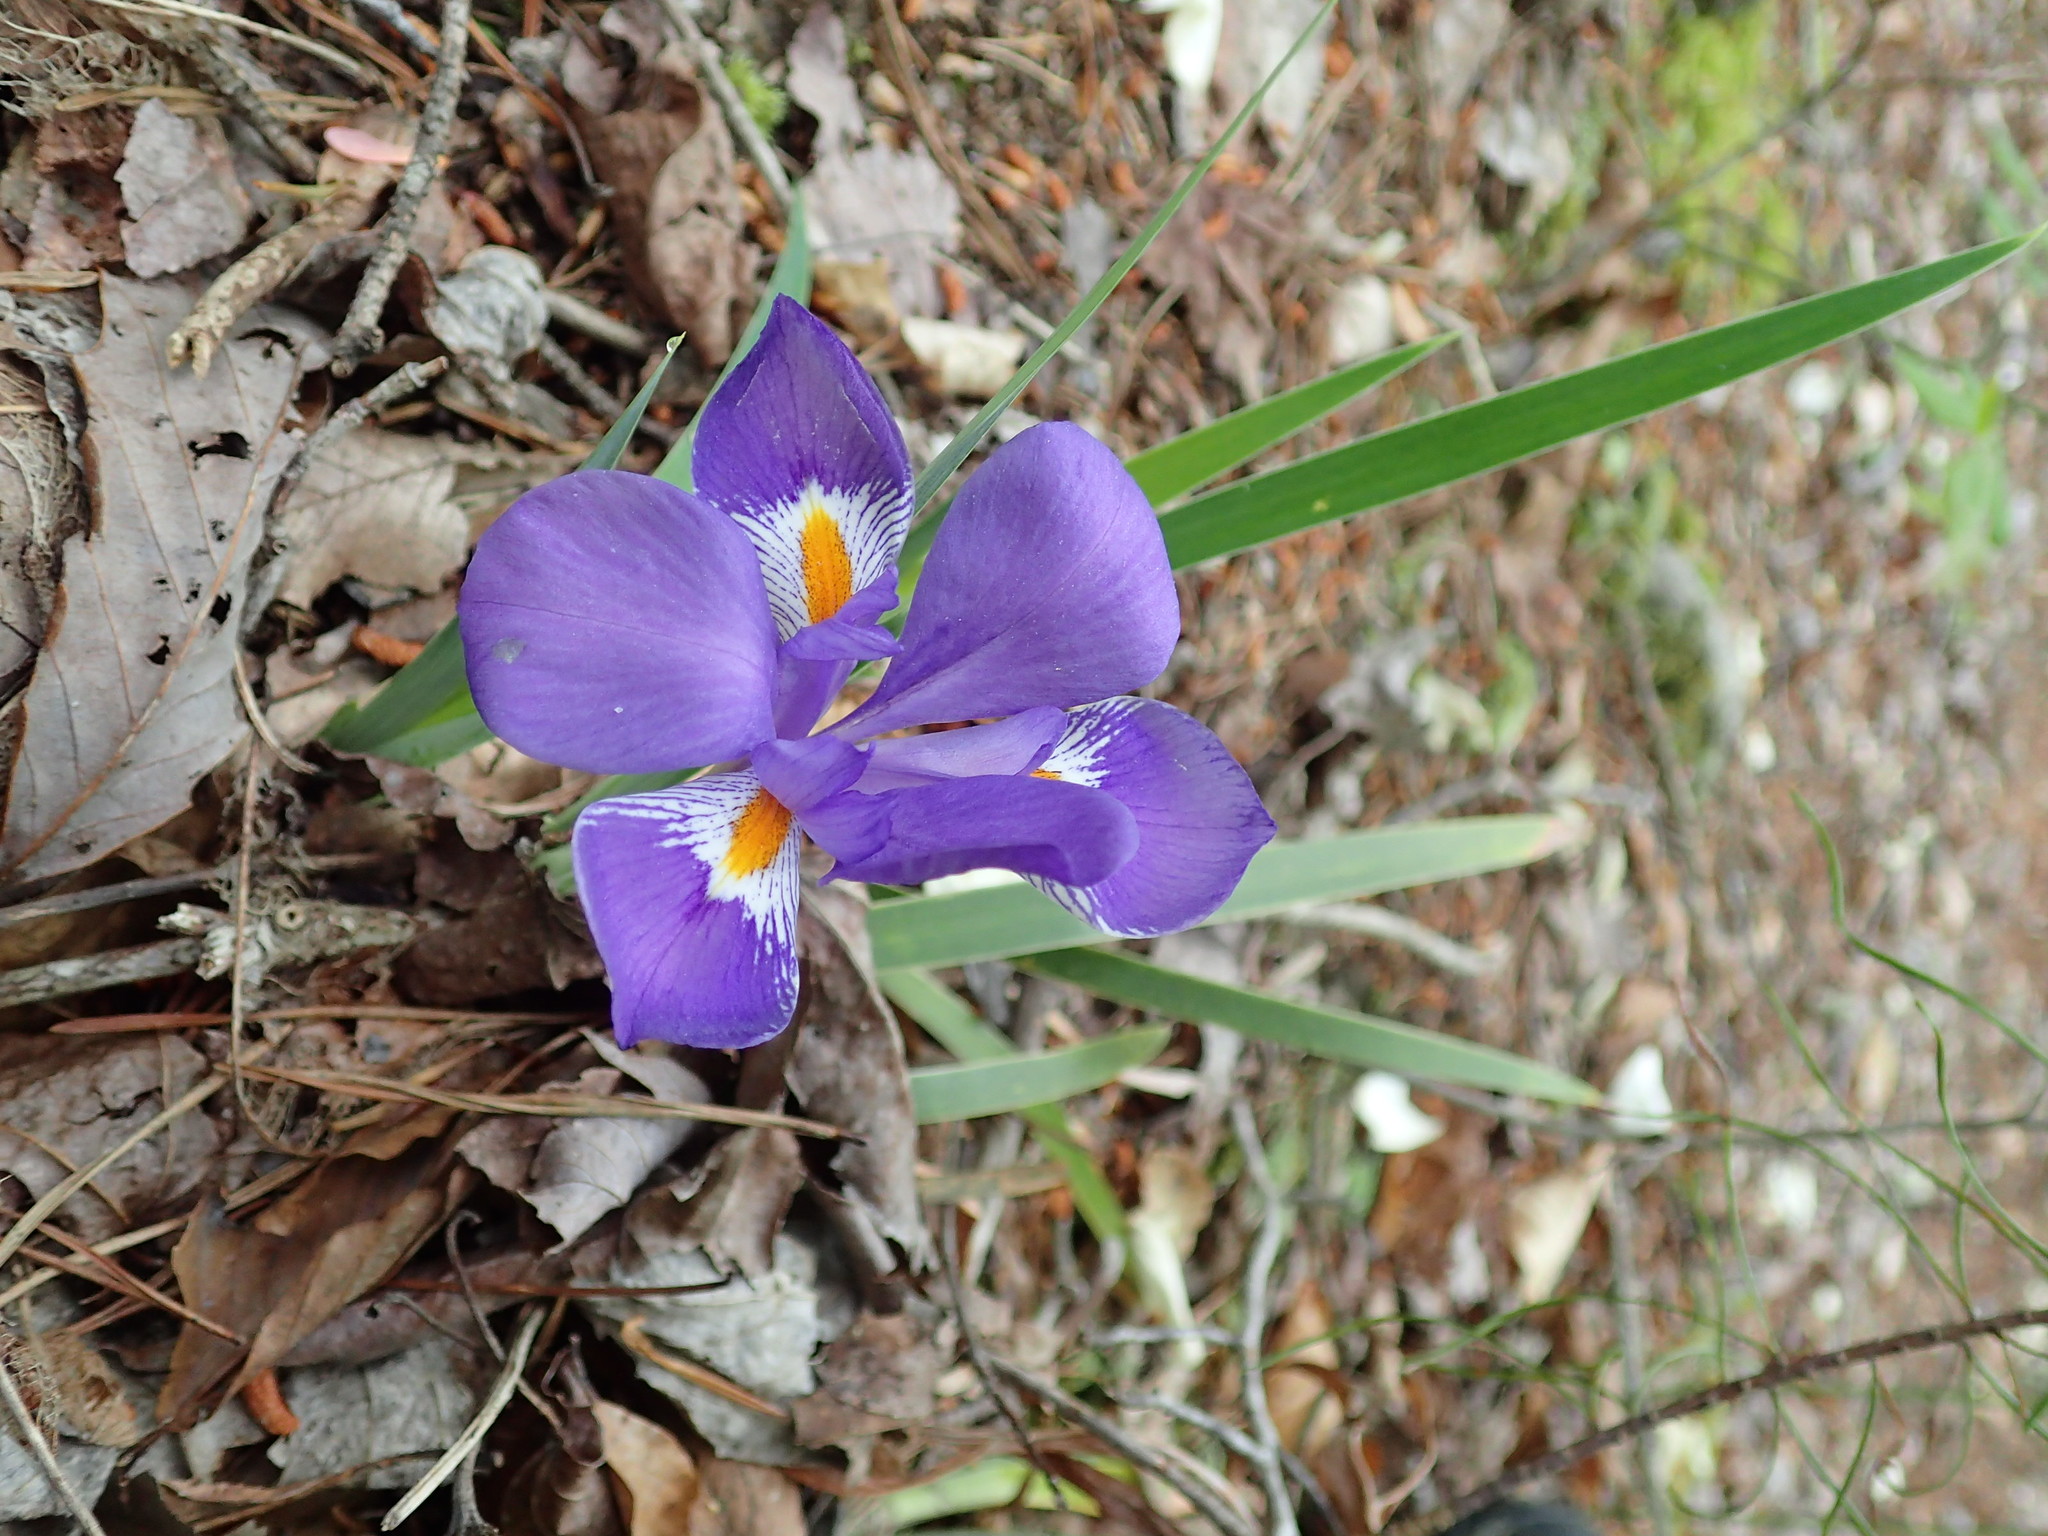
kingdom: Plantae
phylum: Tracheophyta
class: Liliopsida
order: Asparagales
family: Iridaceae
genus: Iris
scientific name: Iris verna
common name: Dwarf iris
